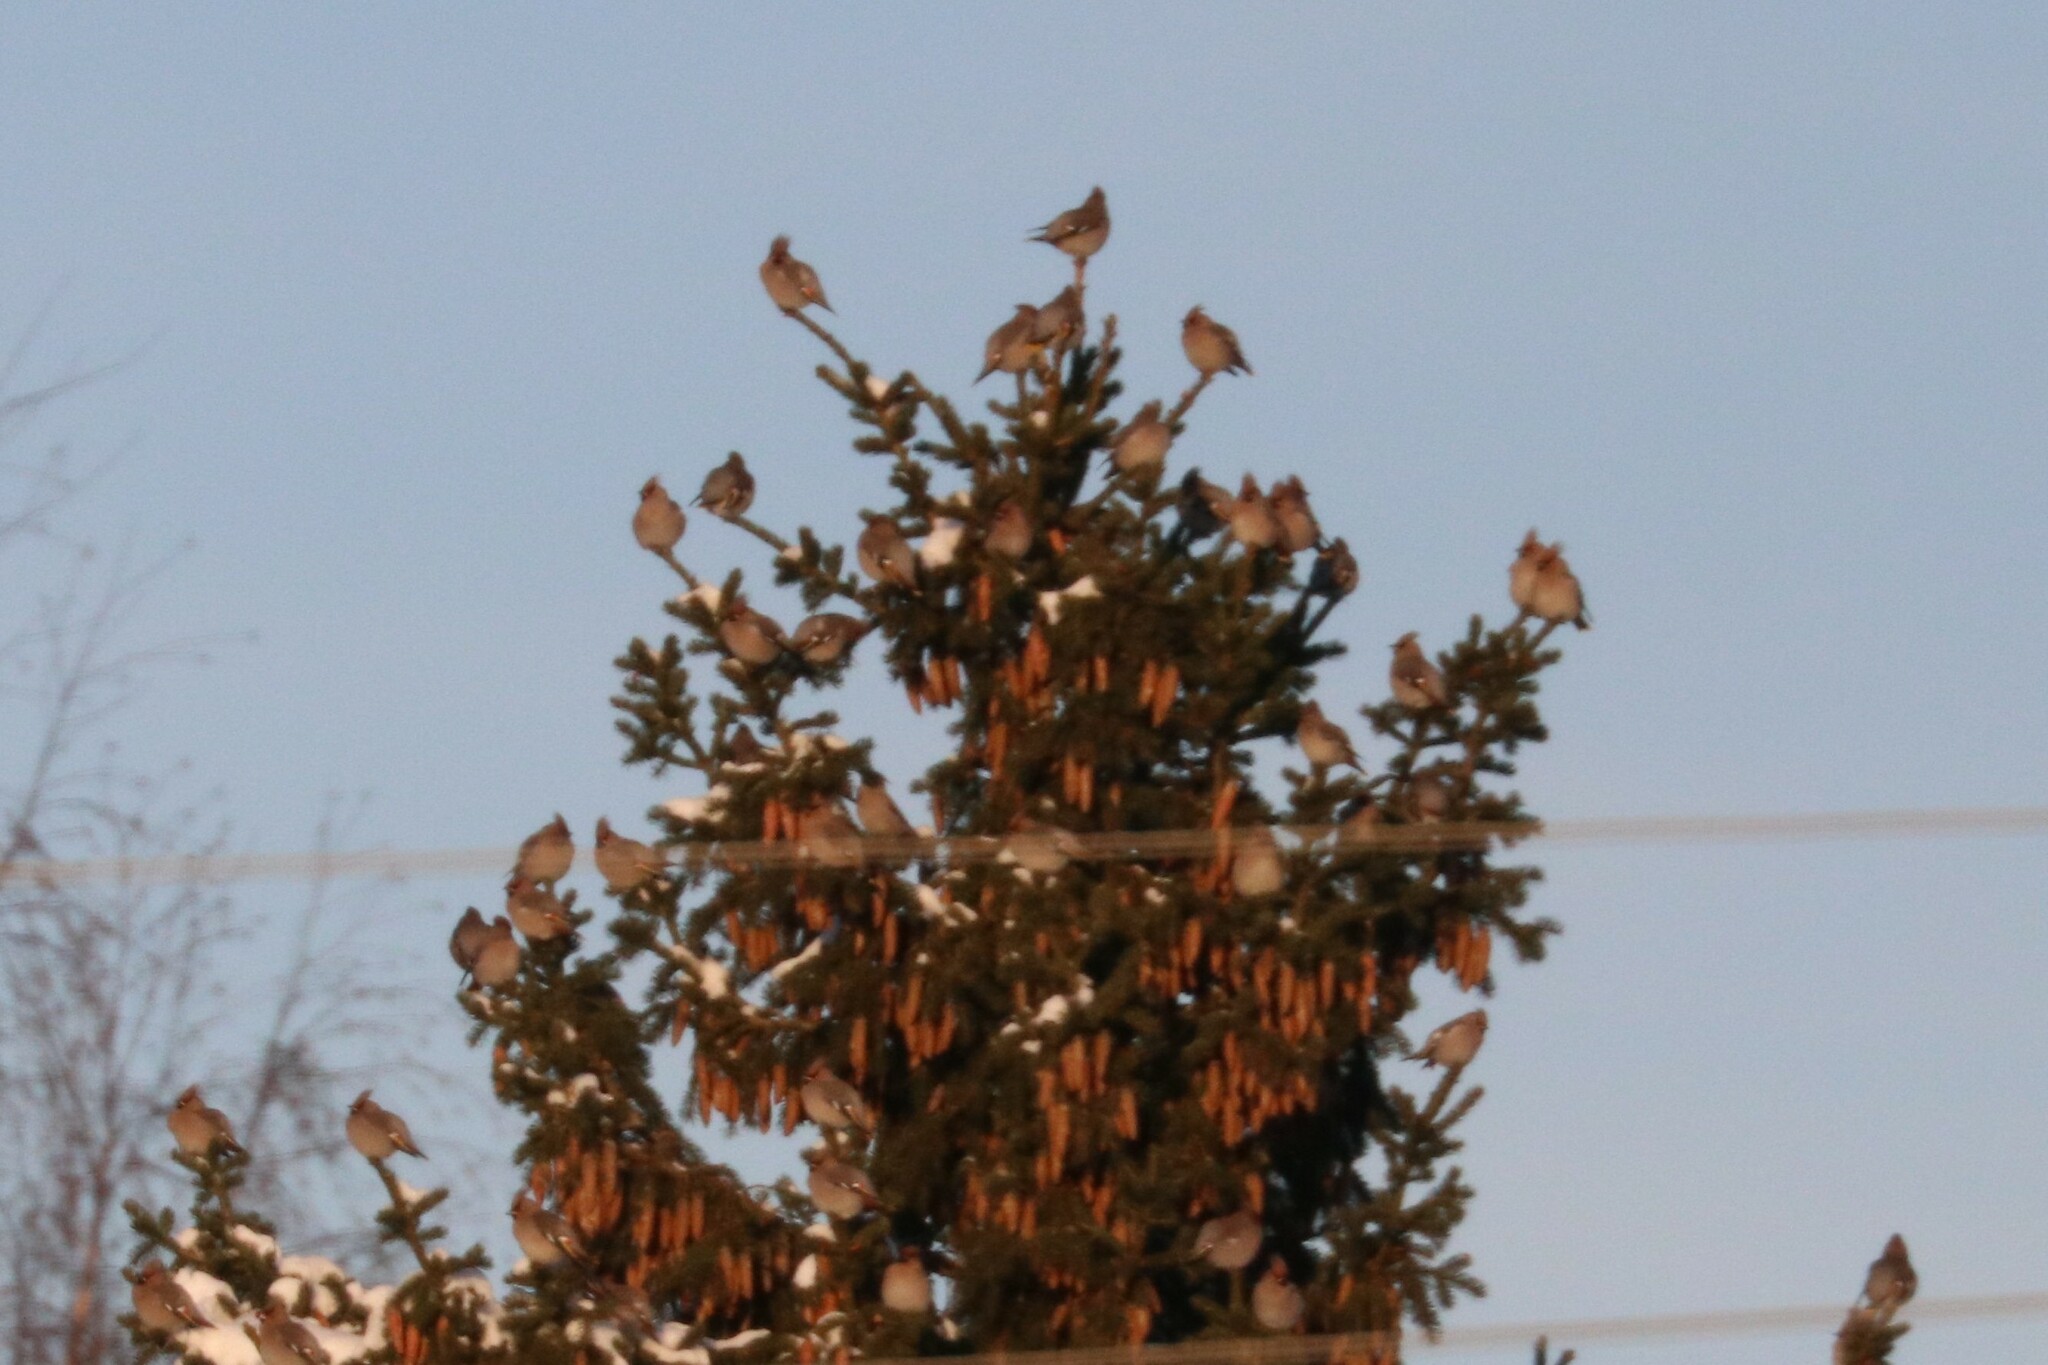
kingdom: Animalia
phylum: Chordata
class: Aves
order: Passeriformes
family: Bombycillidae
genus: Bombycilla
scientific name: Bombycilla garrulus
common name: Bohemian waxwing
